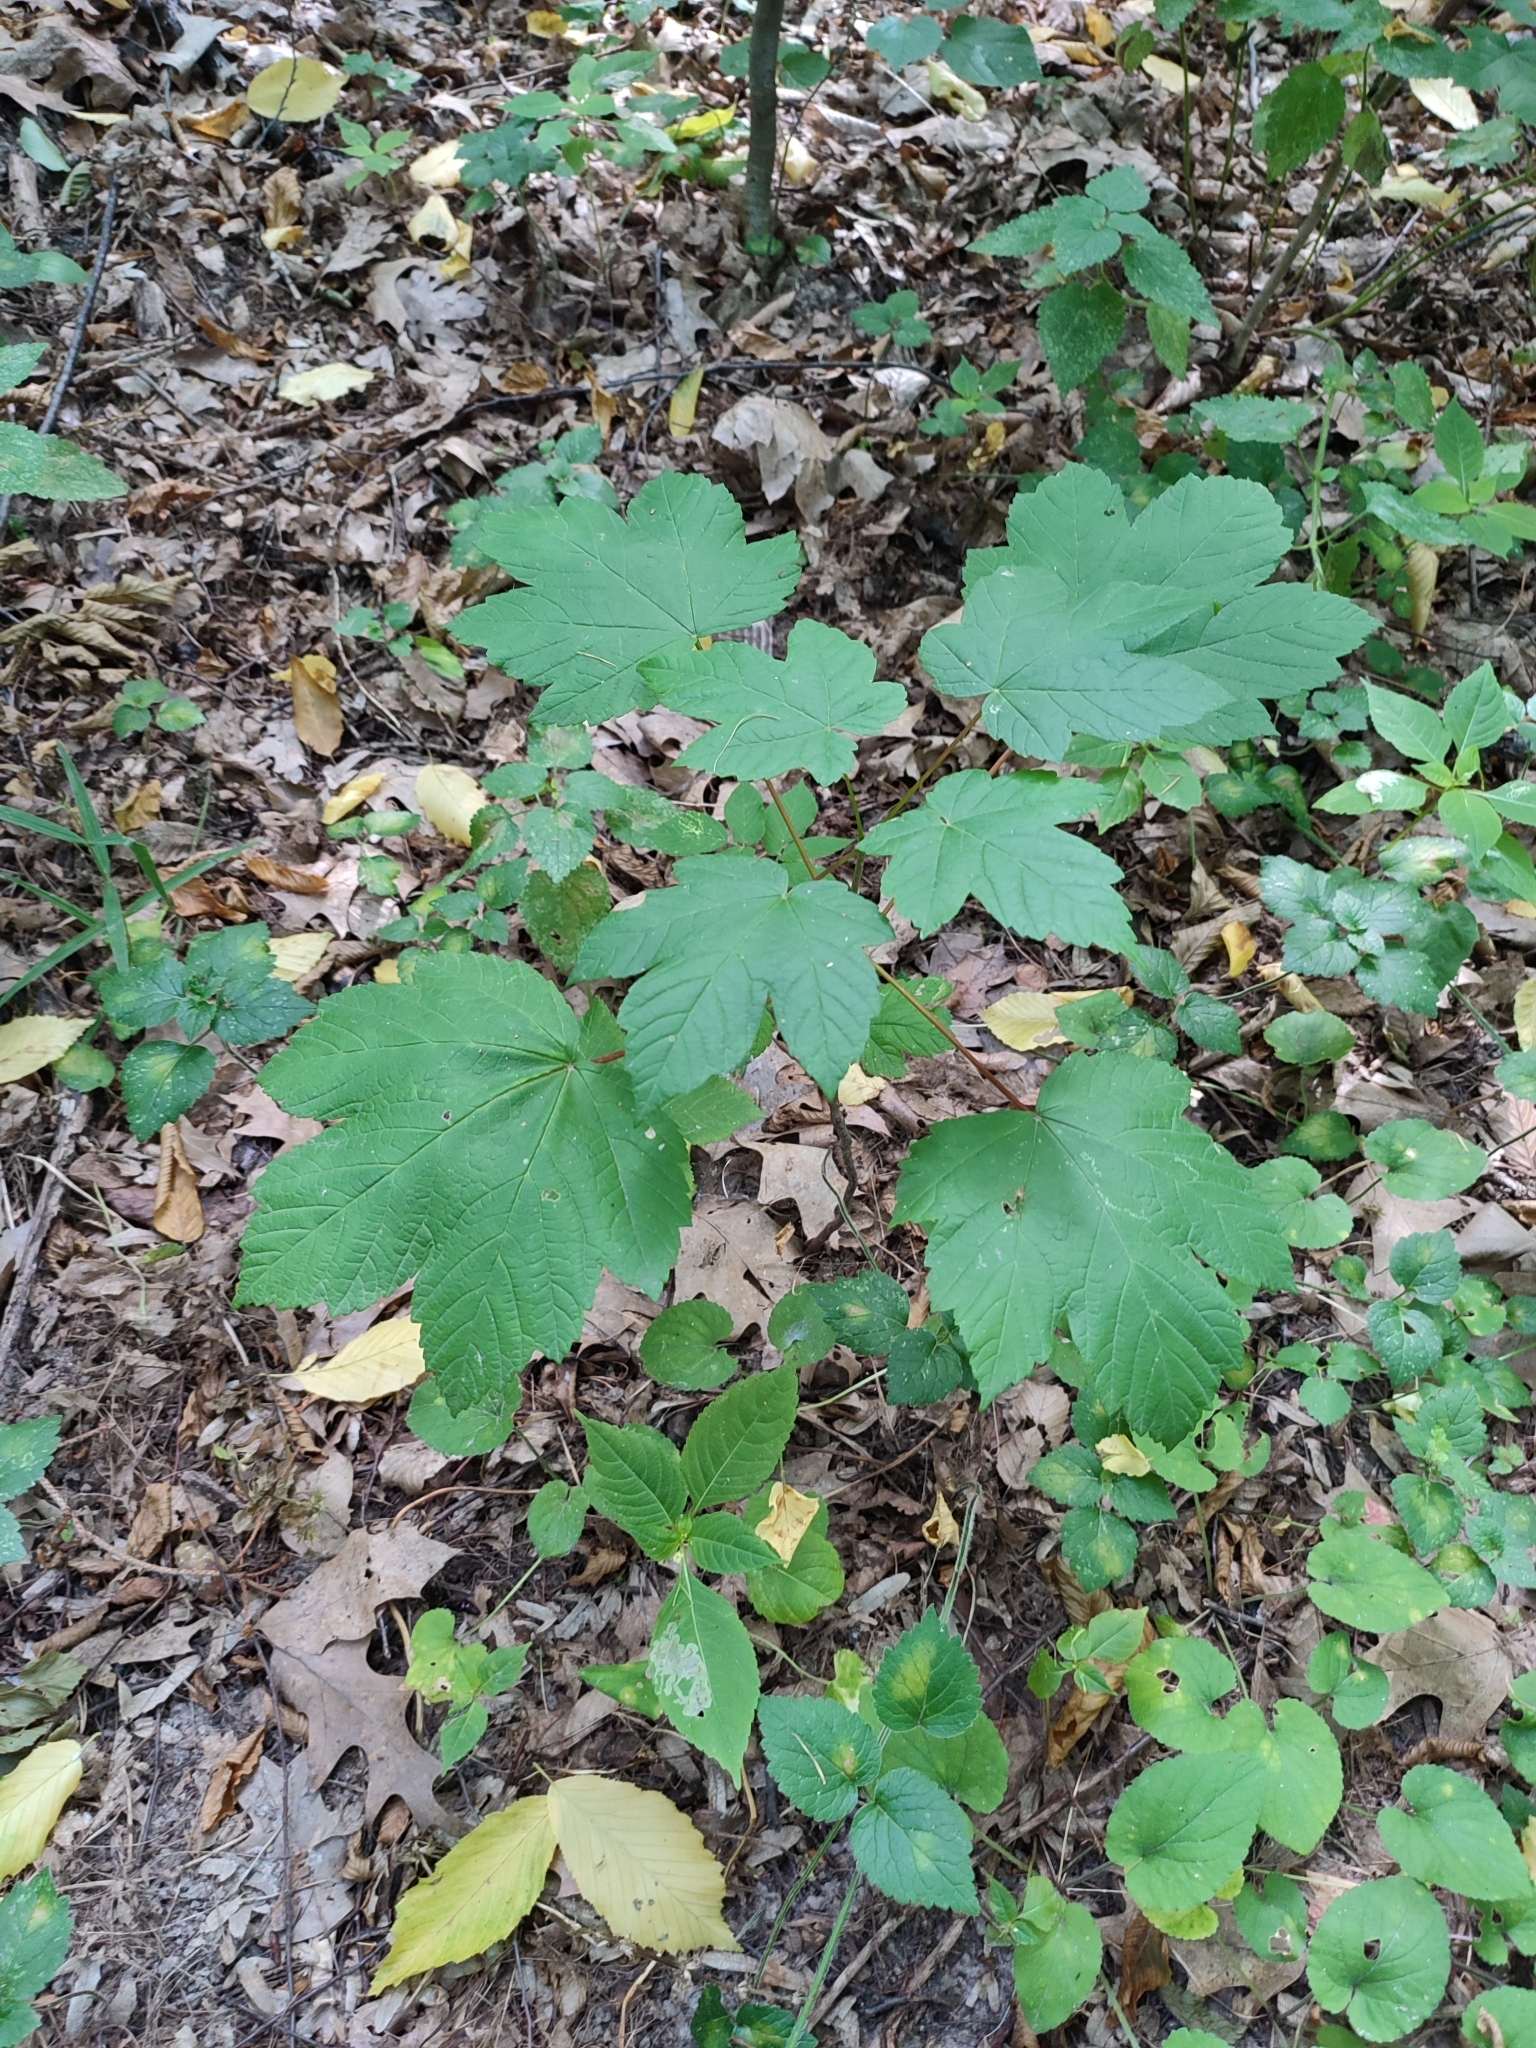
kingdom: Plantae
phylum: Tracheophyta
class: Magnoliopsida
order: Sapindales
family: Sapindaceae
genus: Acer
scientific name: Acer pseudoplatanus
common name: Sycamore
